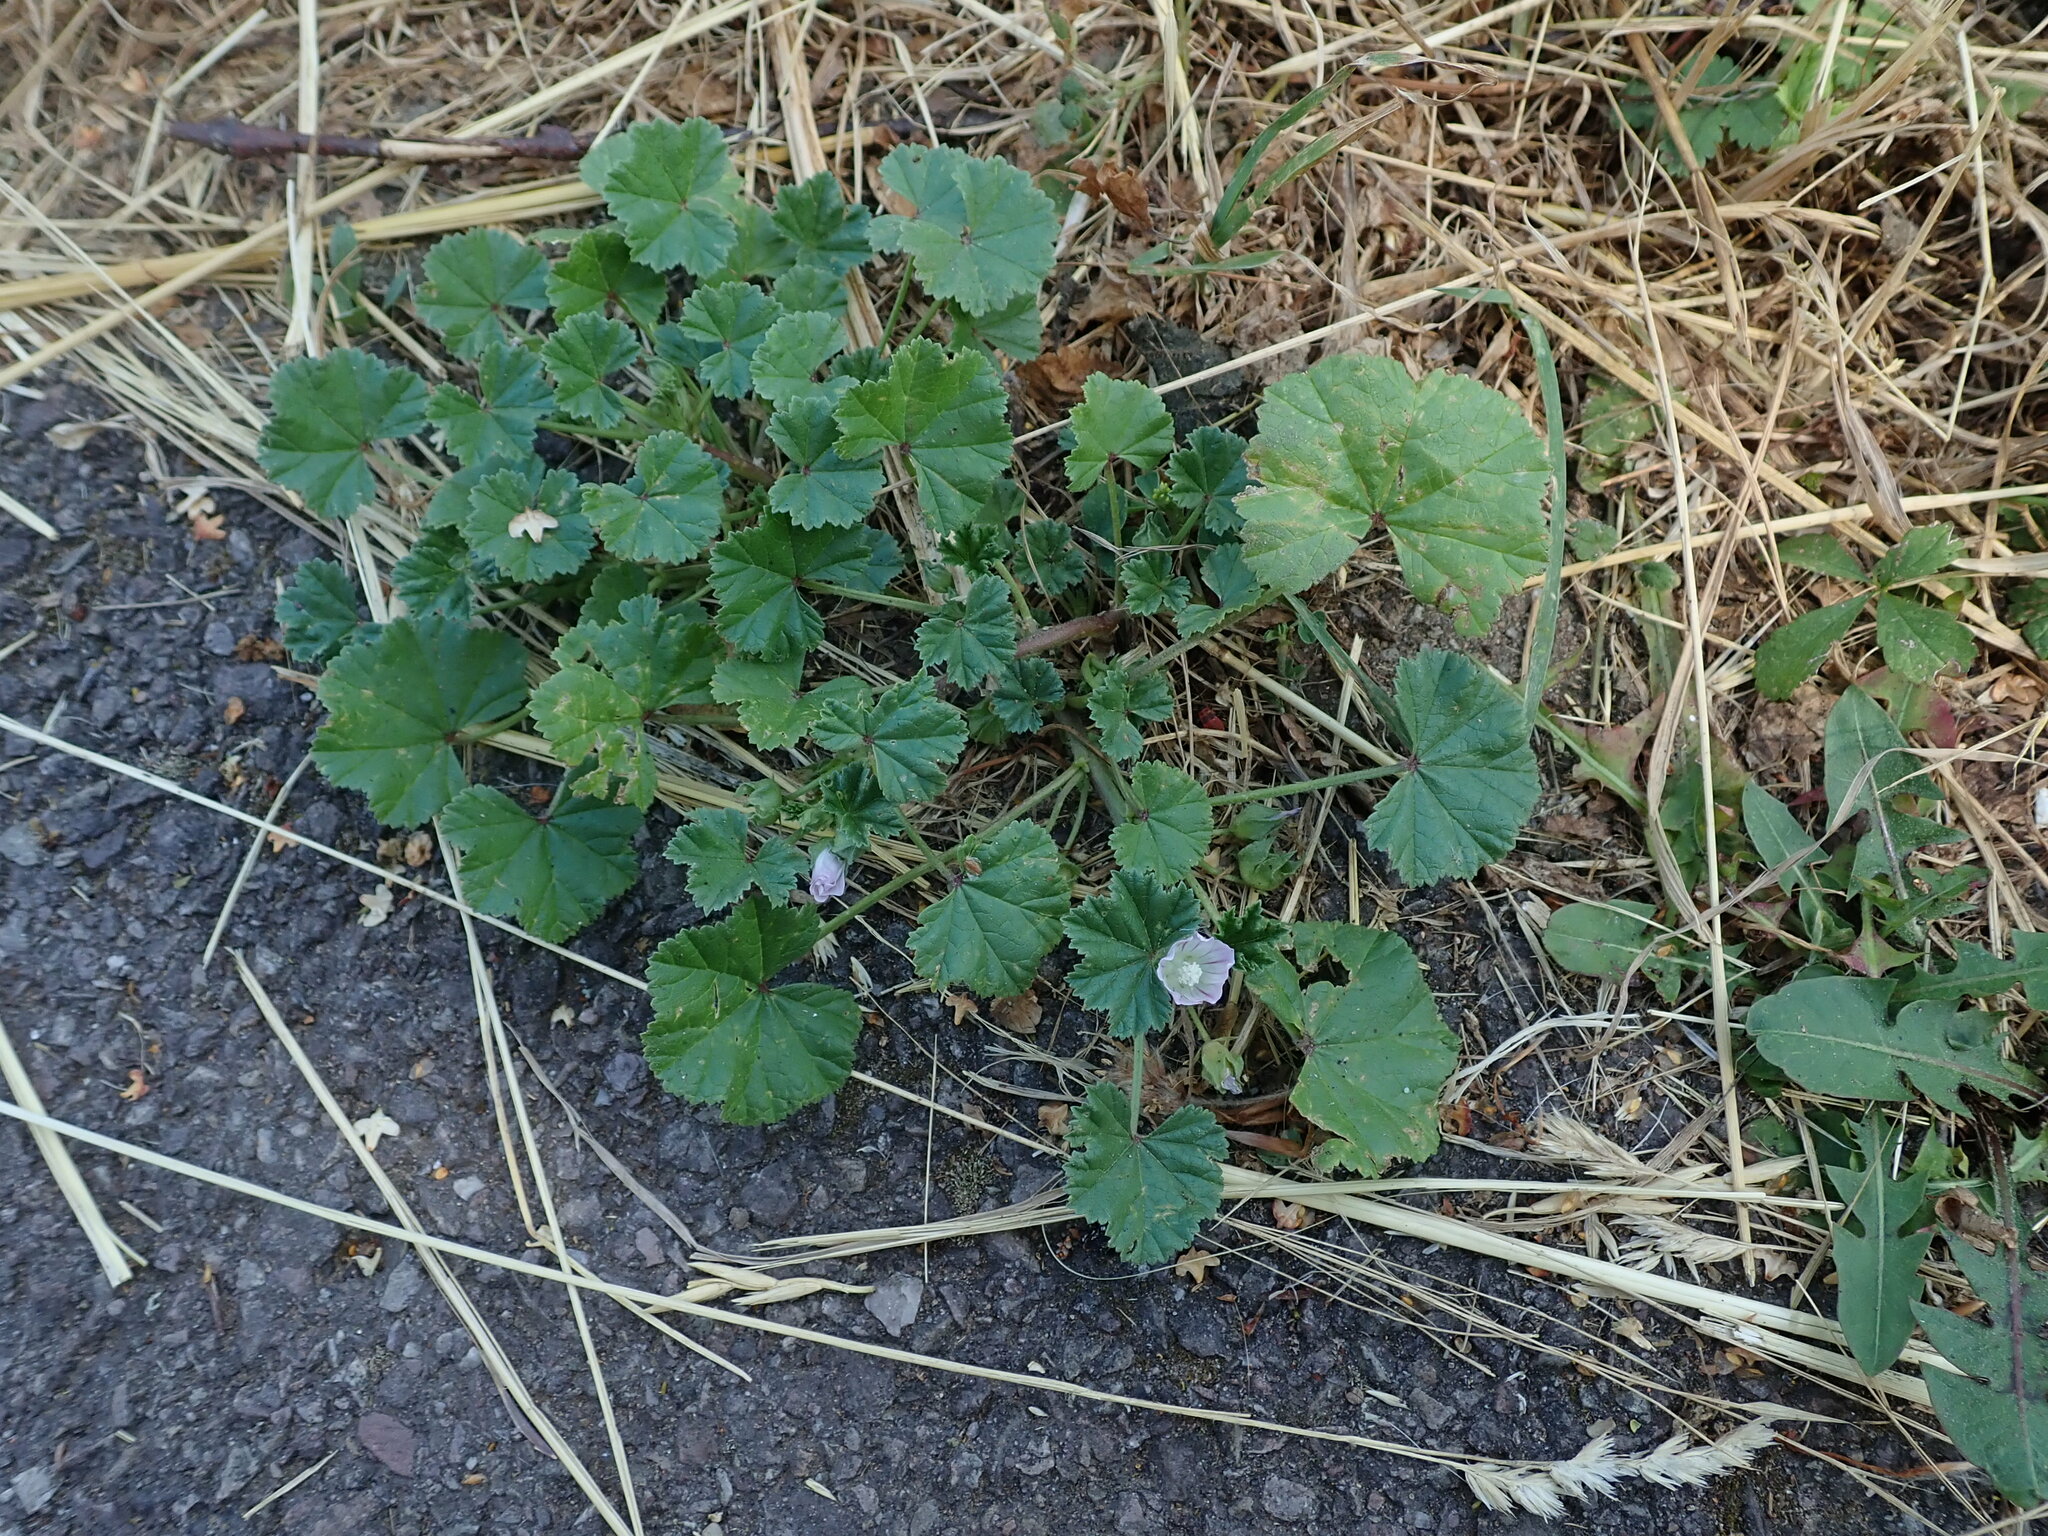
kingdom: Plantae
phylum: Tracheophyta
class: Magnoliopsida
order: Malvales
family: Malvaceae
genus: Malva
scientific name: Malva neglecta
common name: Common mallow
